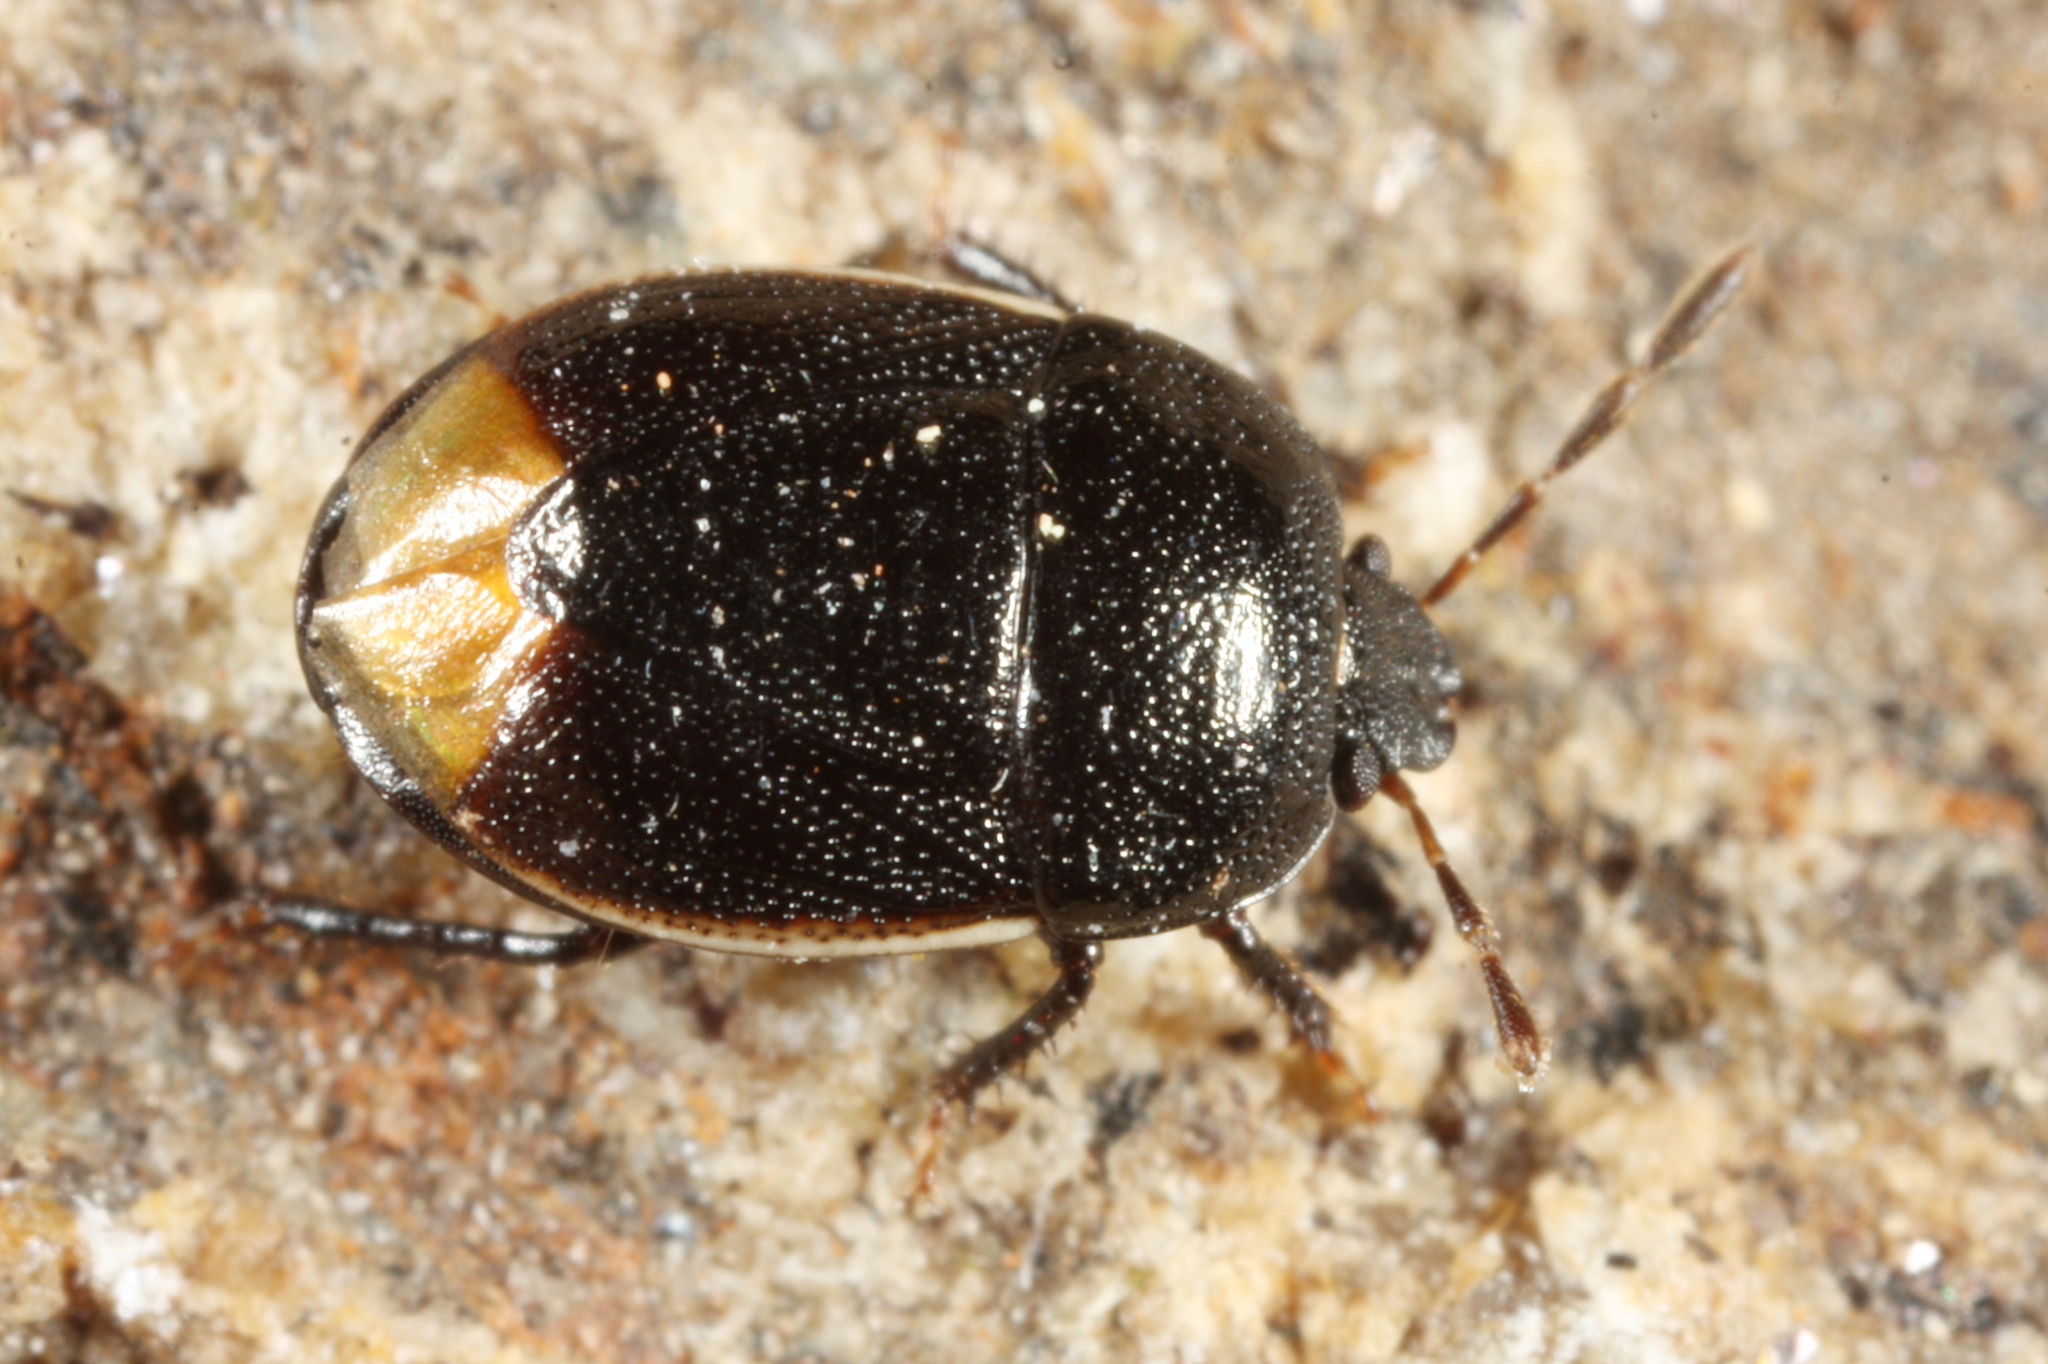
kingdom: Animalia
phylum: Arthropoda
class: Insecta
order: Hemiptera
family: Cydnidae
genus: Legnotus
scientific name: Legnotus limbosus
